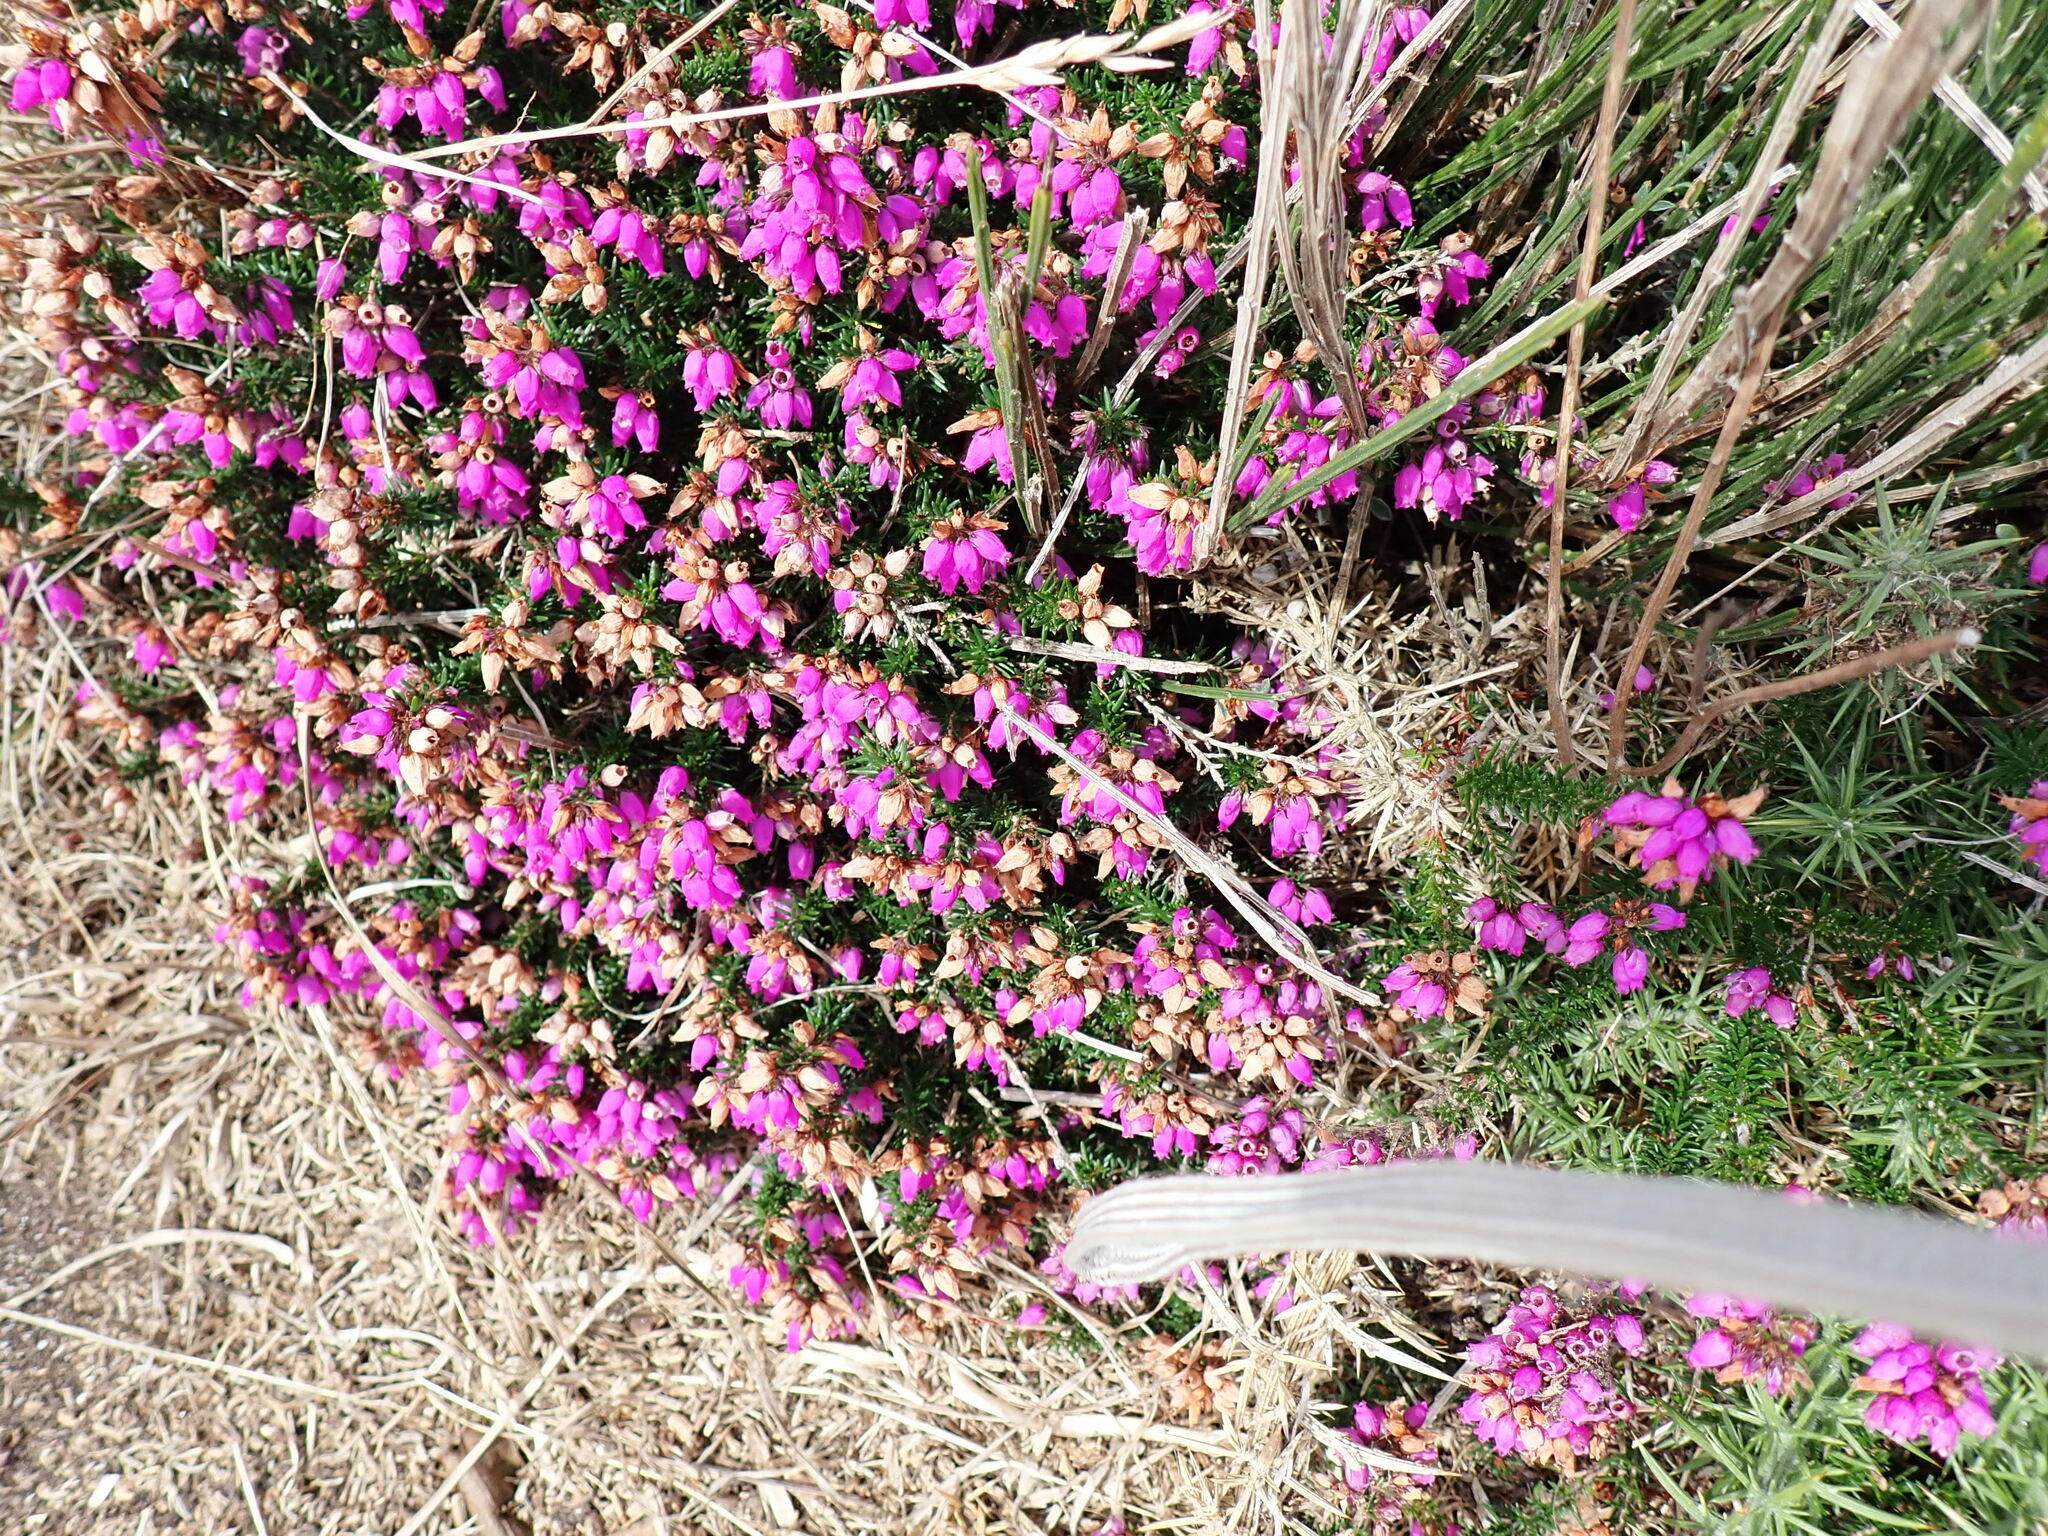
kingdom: Plantae
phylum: Tracheophyta
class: Magnoliopsida
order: Ericales
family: Ericaceae
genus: Erica
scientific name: Erica cinerea
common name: Bell heather
